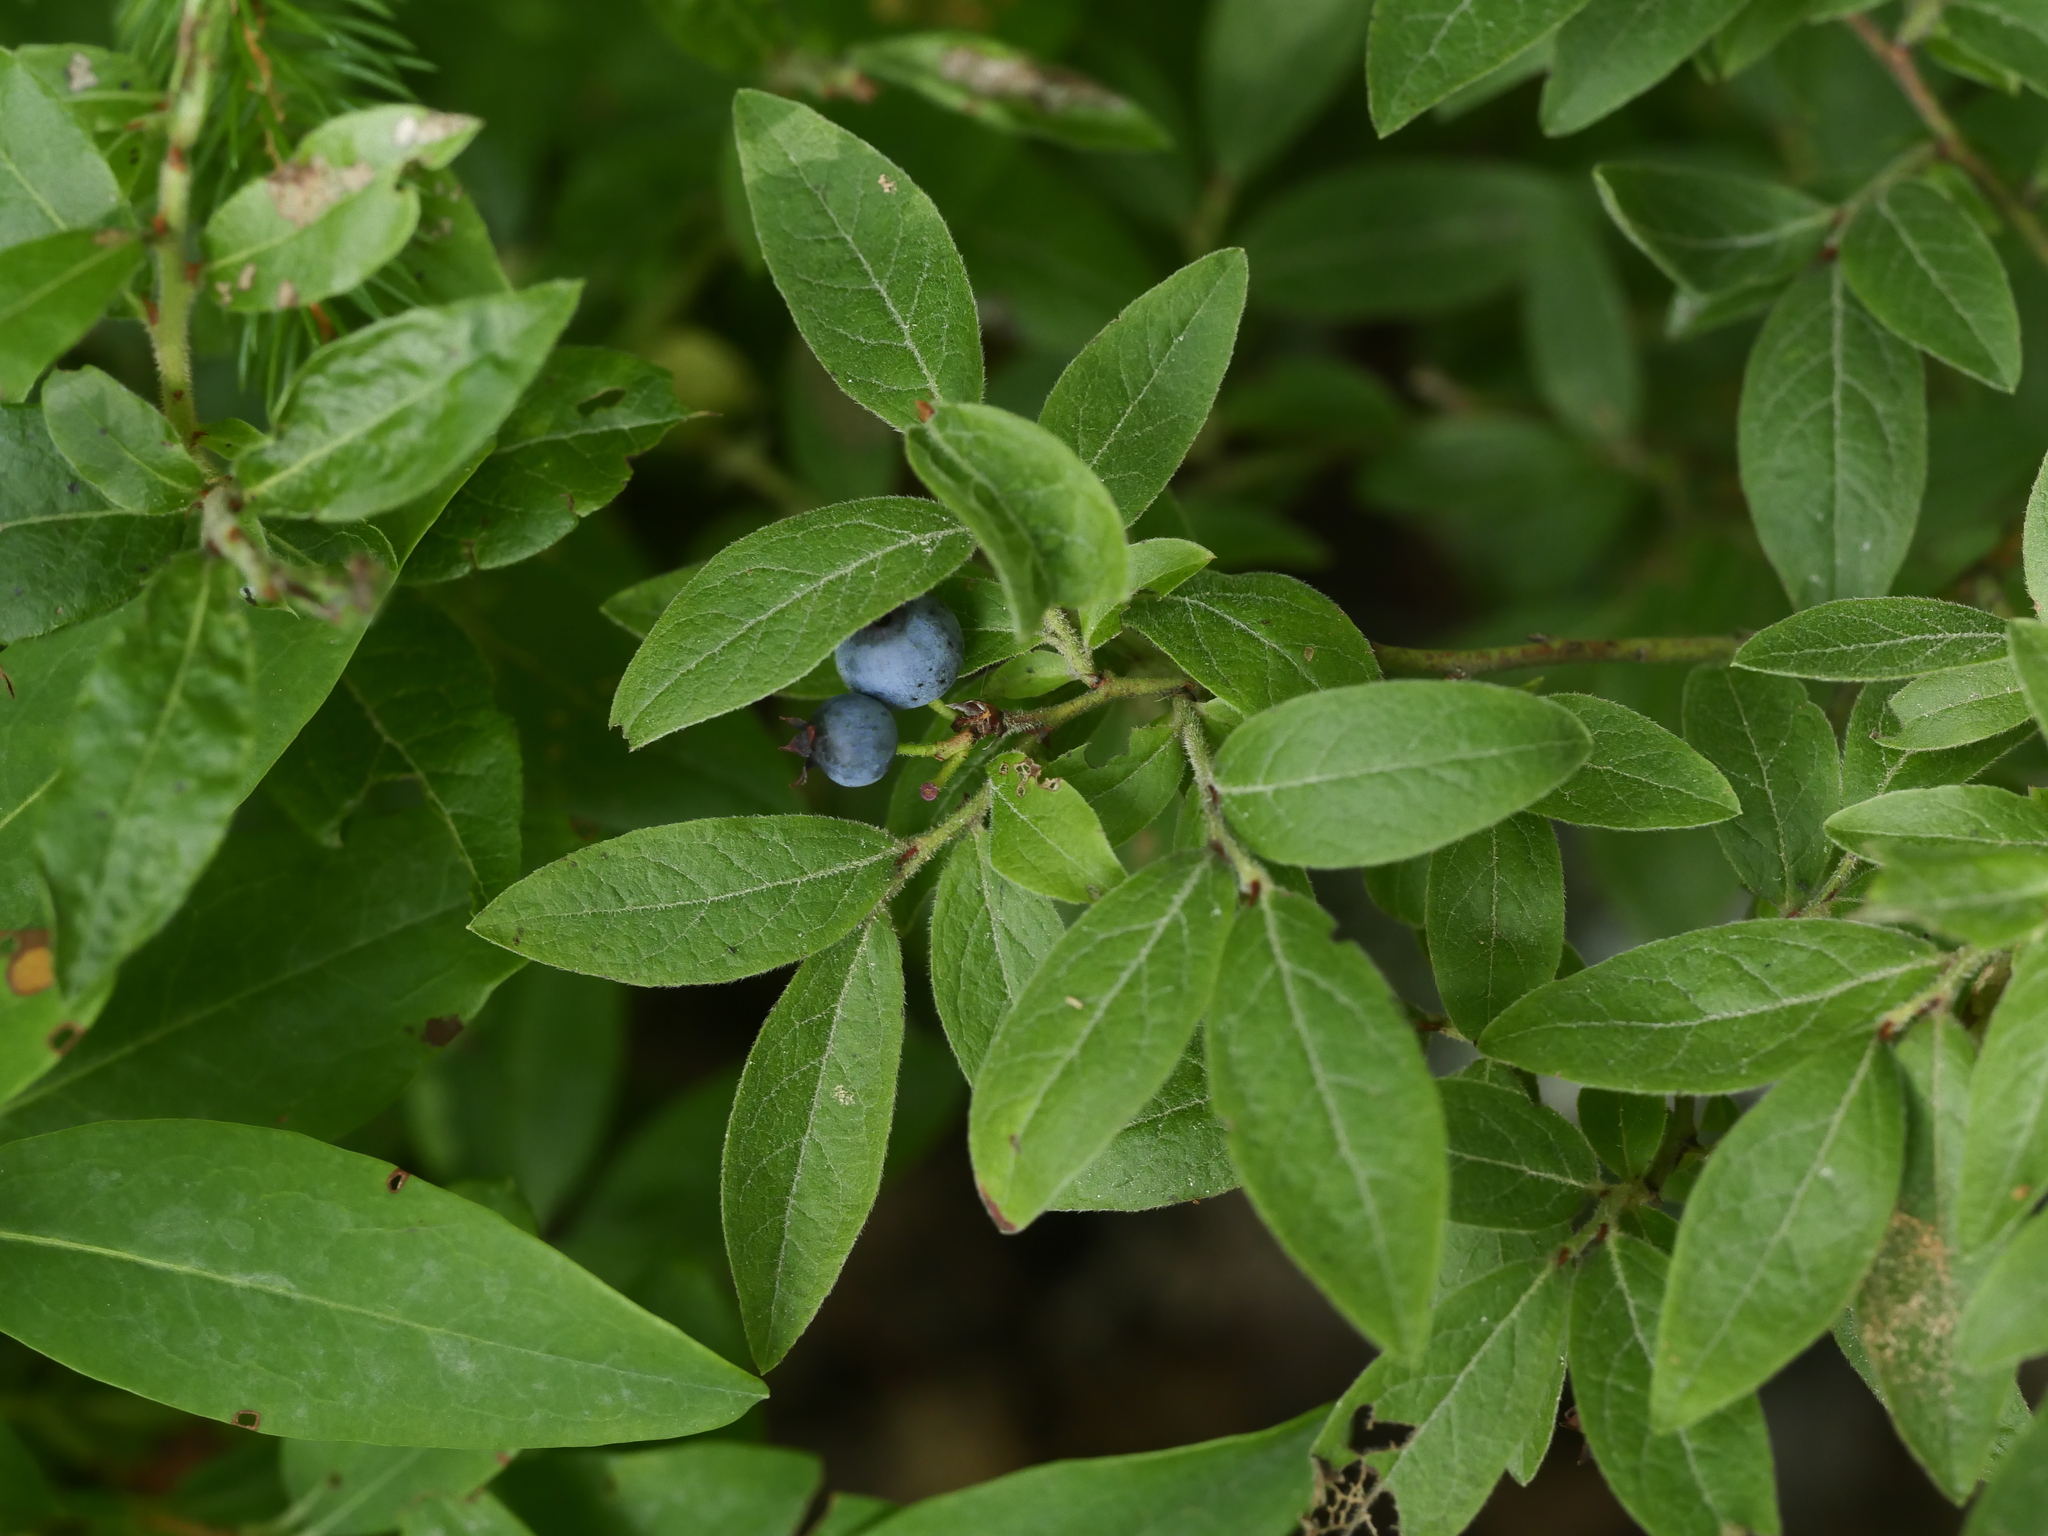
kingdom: Plantae
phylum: Tracheophyta
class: Magnoliopsida
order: Ericales
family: Ericaceae
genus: Vaccinium
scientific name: Vaccinium myrtilloides
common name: Canada blueberry
